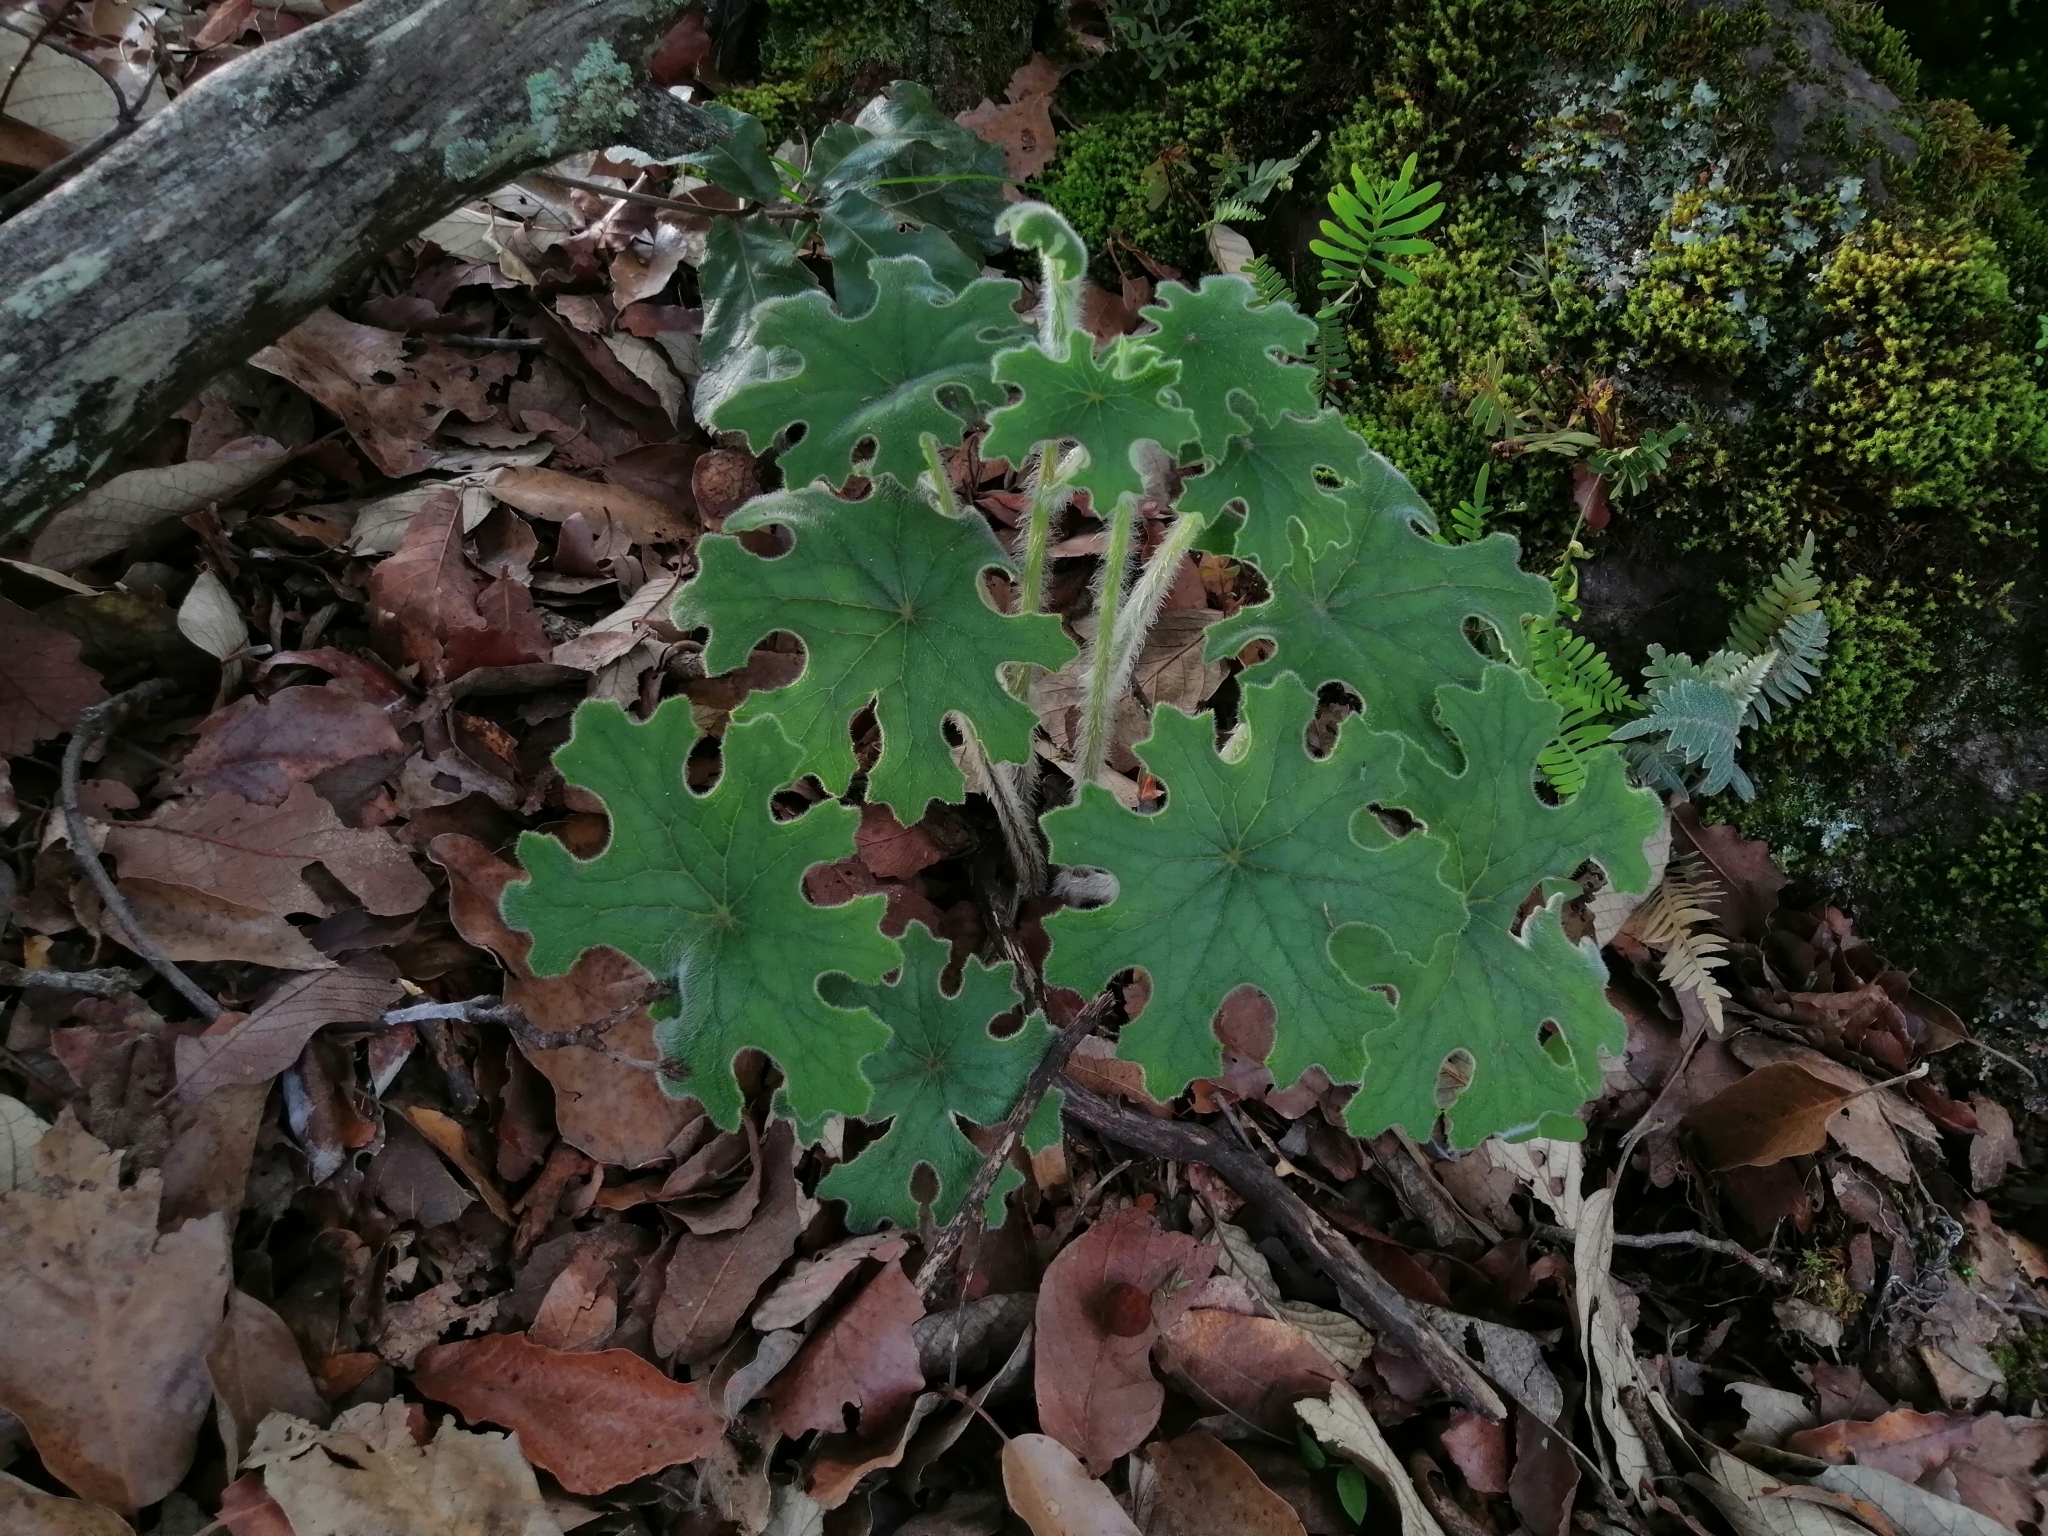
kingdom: Plantae
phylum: Tracheophyta
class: Magnoliopsida
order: Asterales
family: Asteraceae
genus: Psacalium
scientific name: Psacalium laxiflorum
